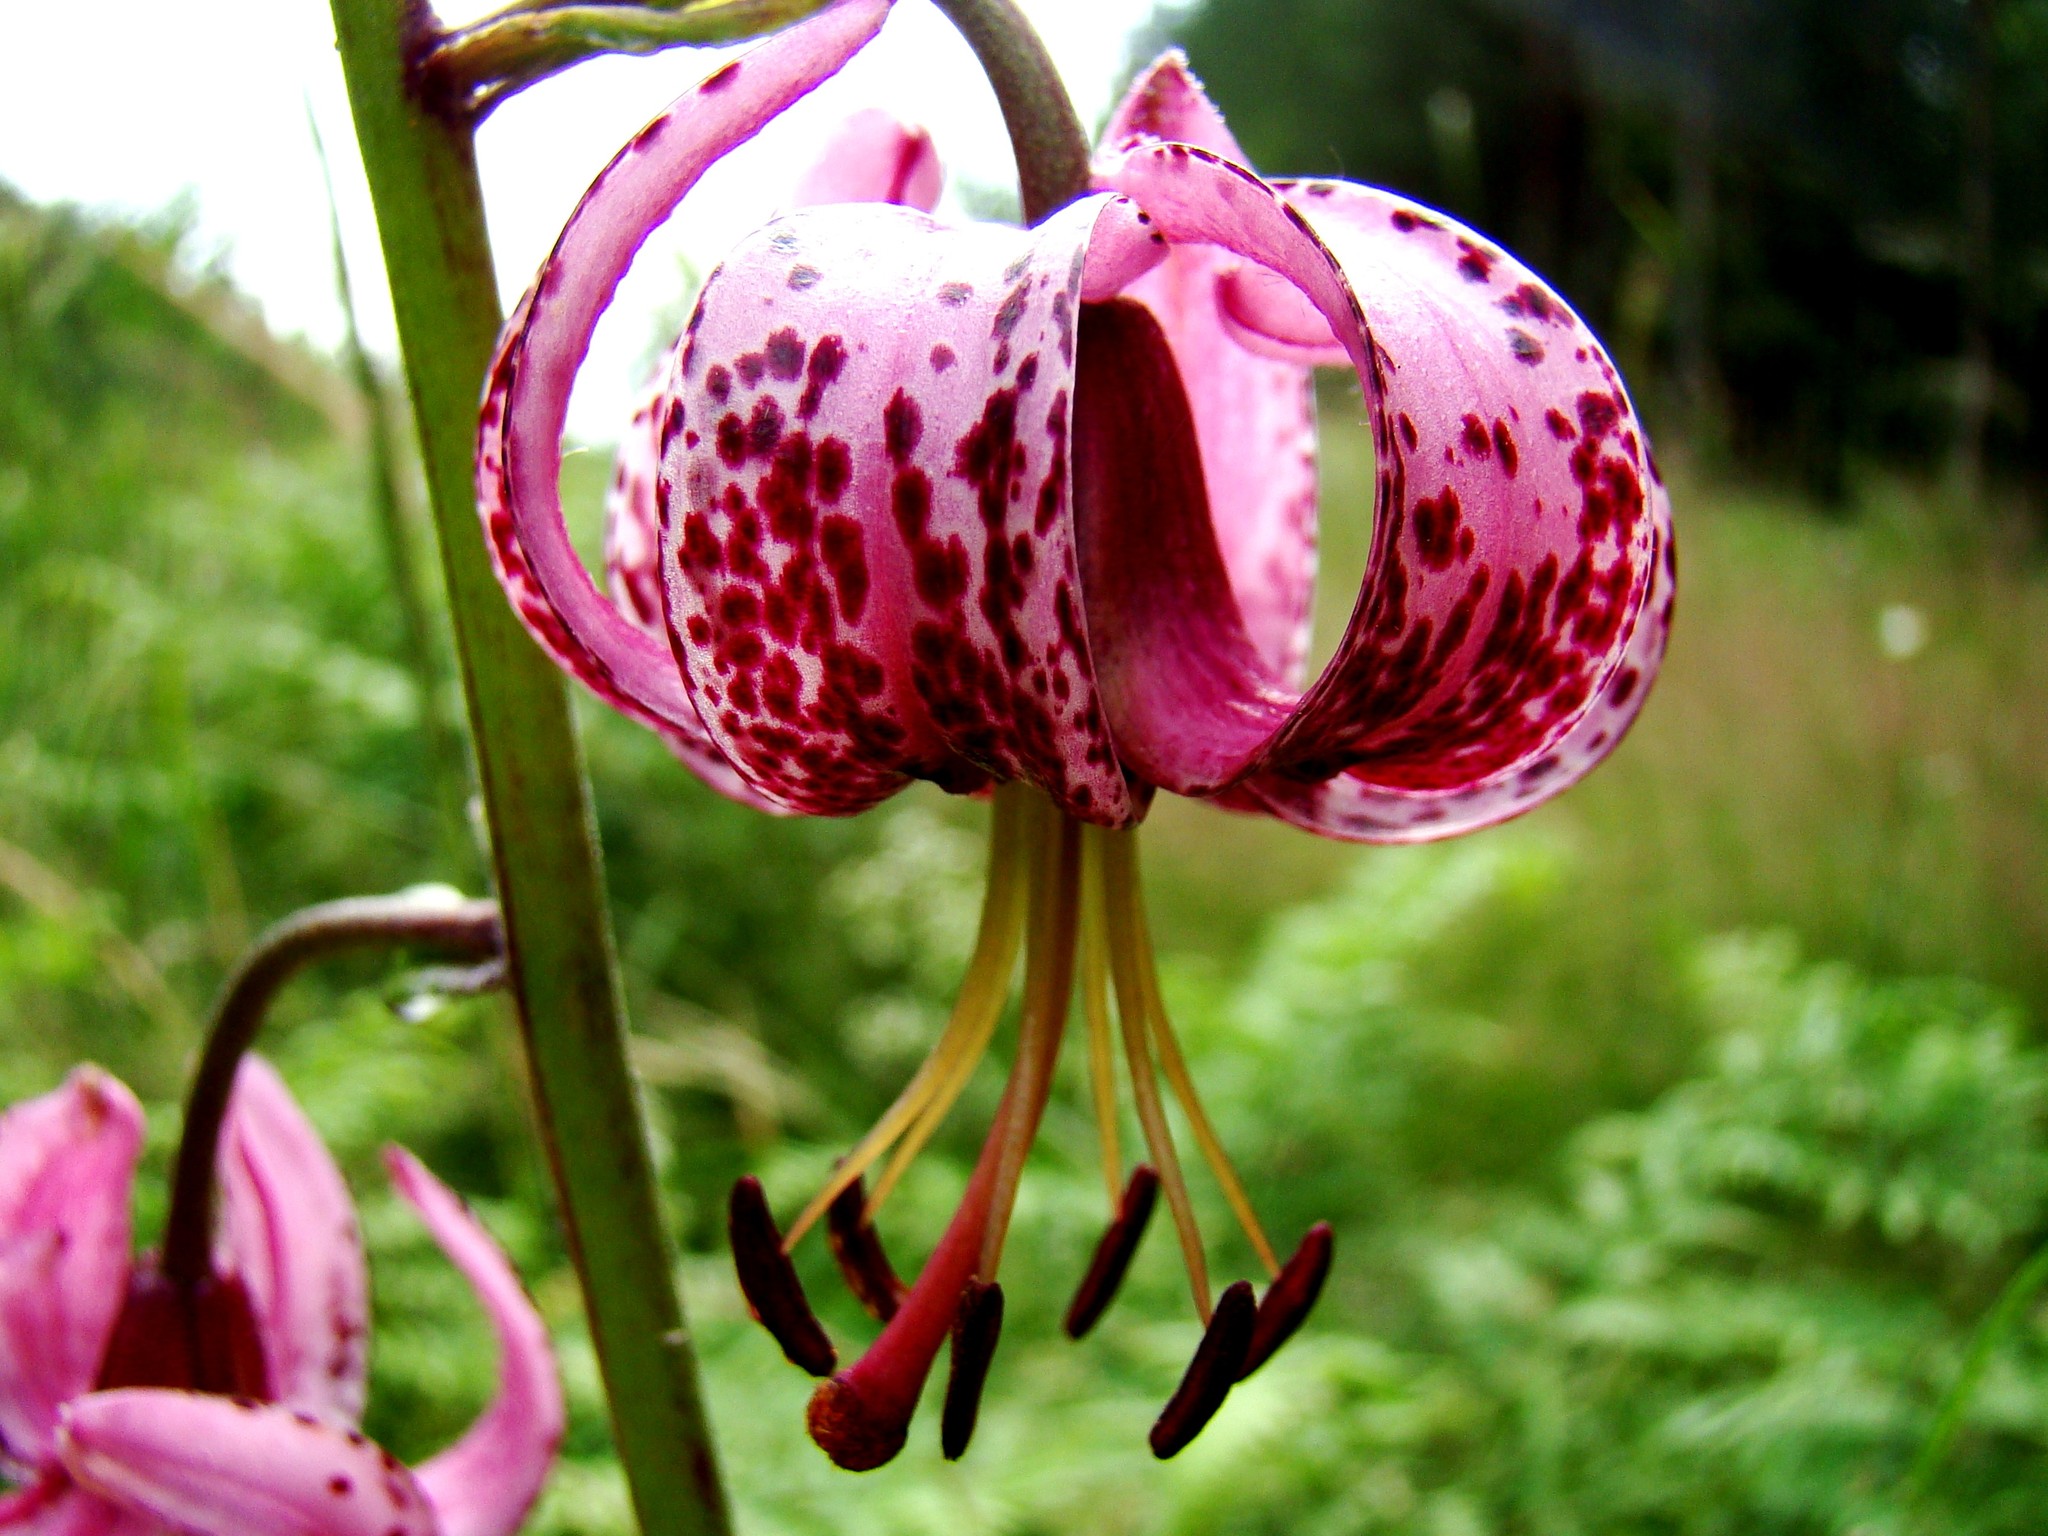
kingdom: Plantae
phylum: Tracheophyta
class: Liliopsida
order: Liliales
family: Liliaceae
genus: Lilium
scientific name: Lilium martagon
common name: Martagon lily
